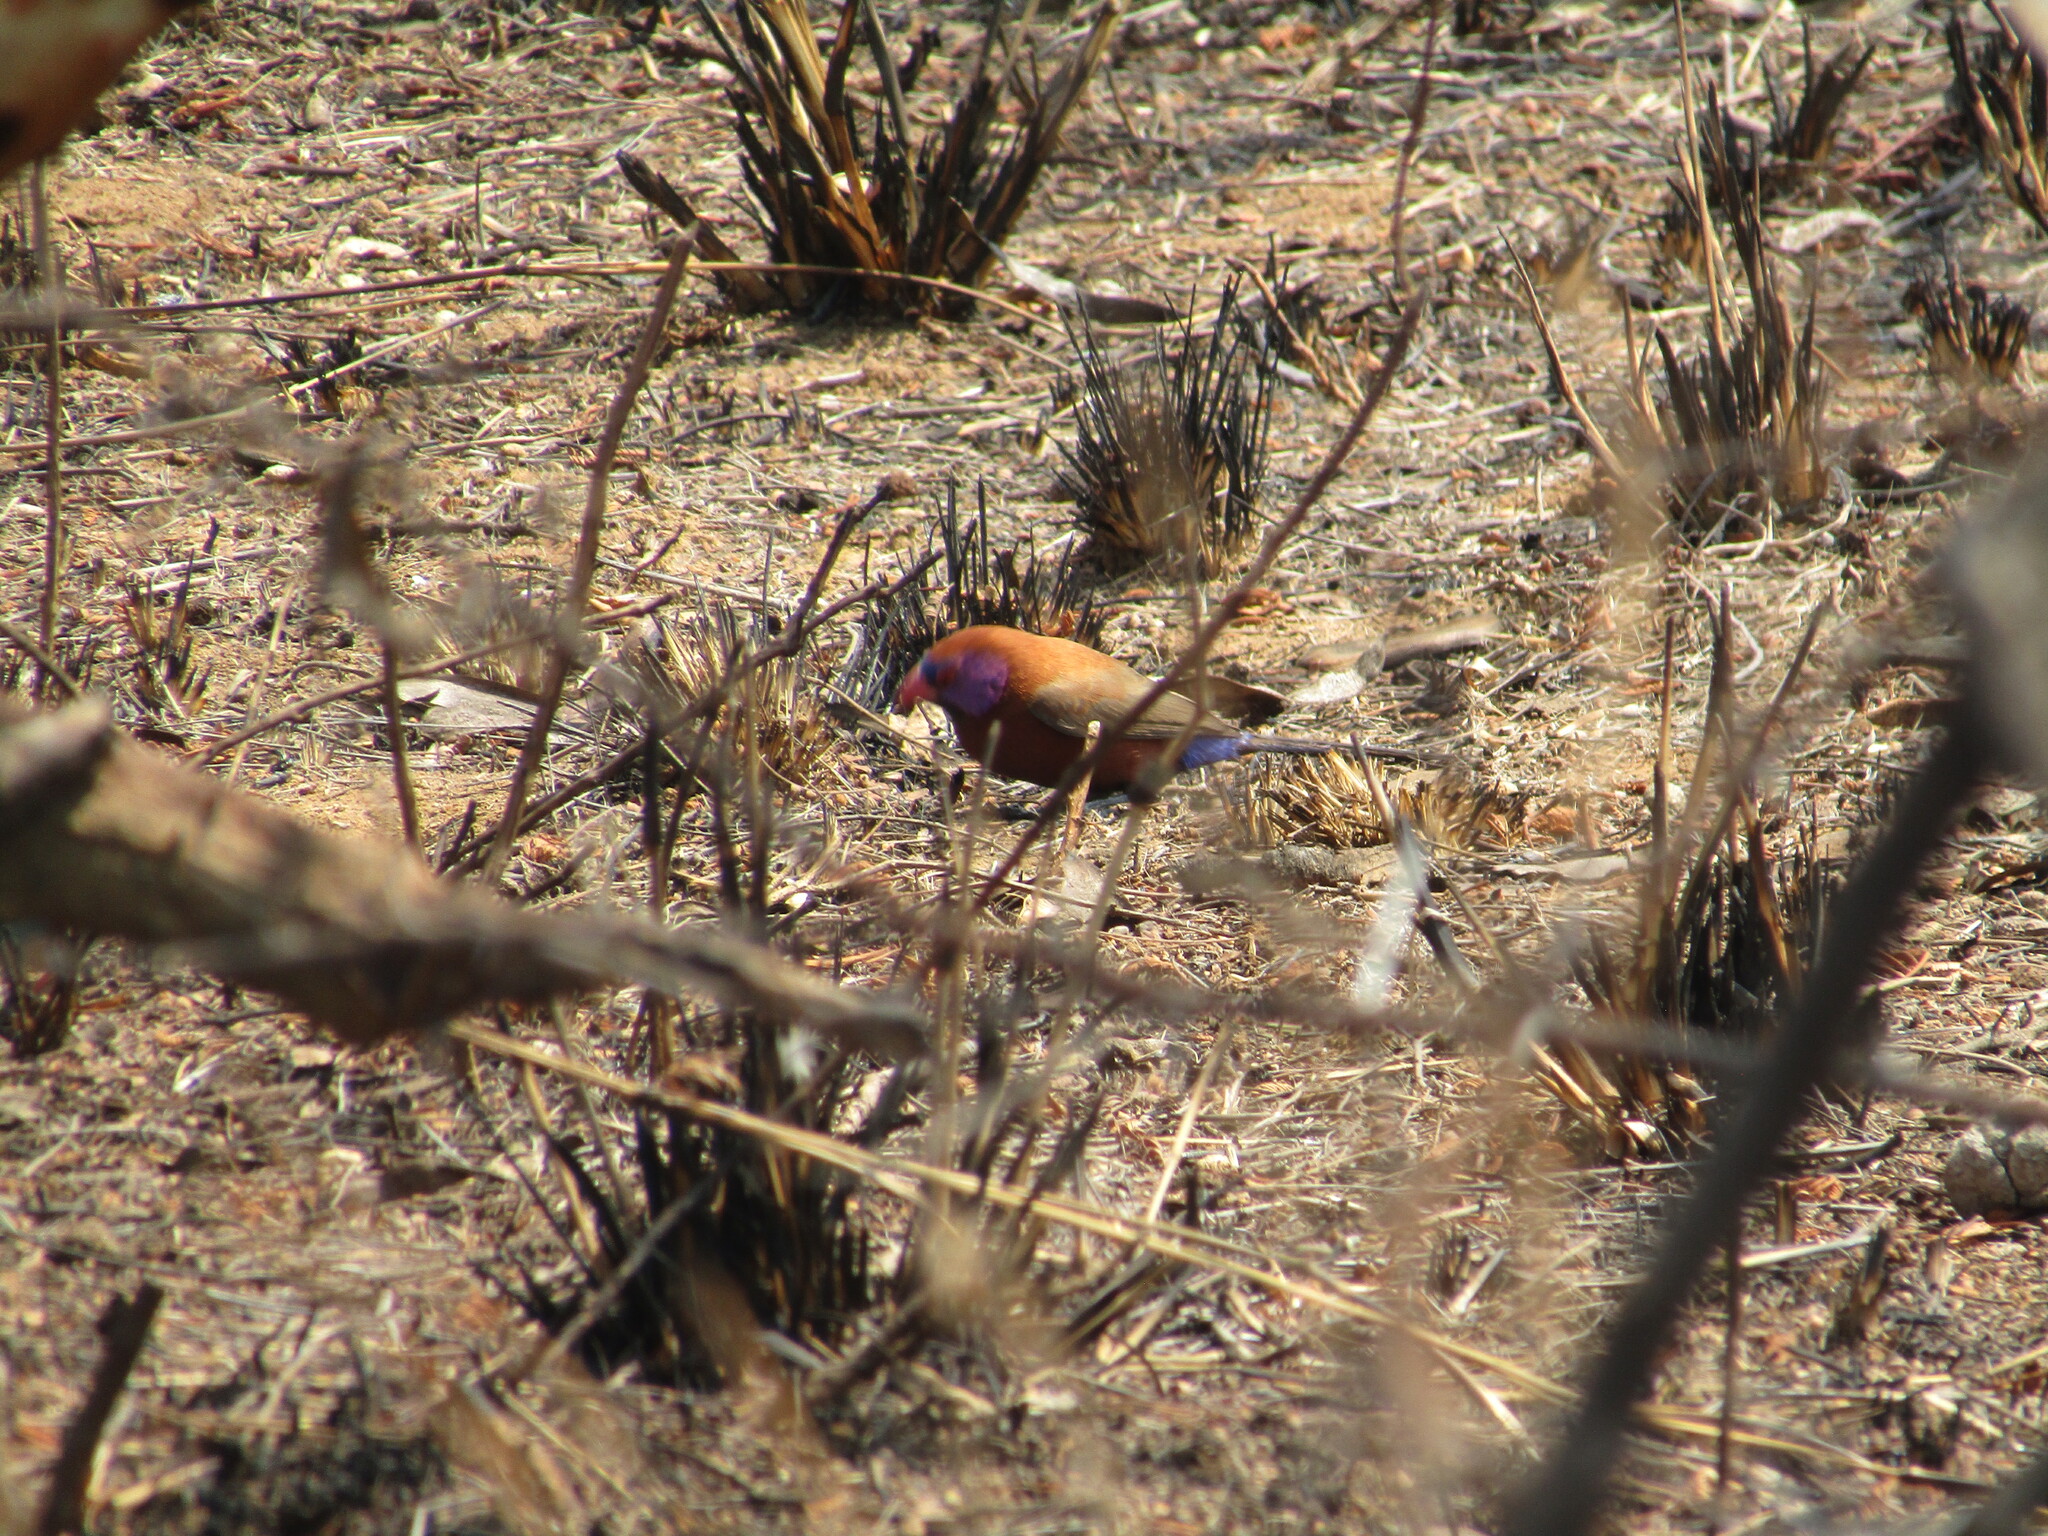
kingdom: Animalia
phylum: Chordata
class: Aves
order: Passeriformes
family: Estrildidae
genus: Uraeginthus
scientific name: Uraeginthus granatinus
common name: Violet-eared waxbill
